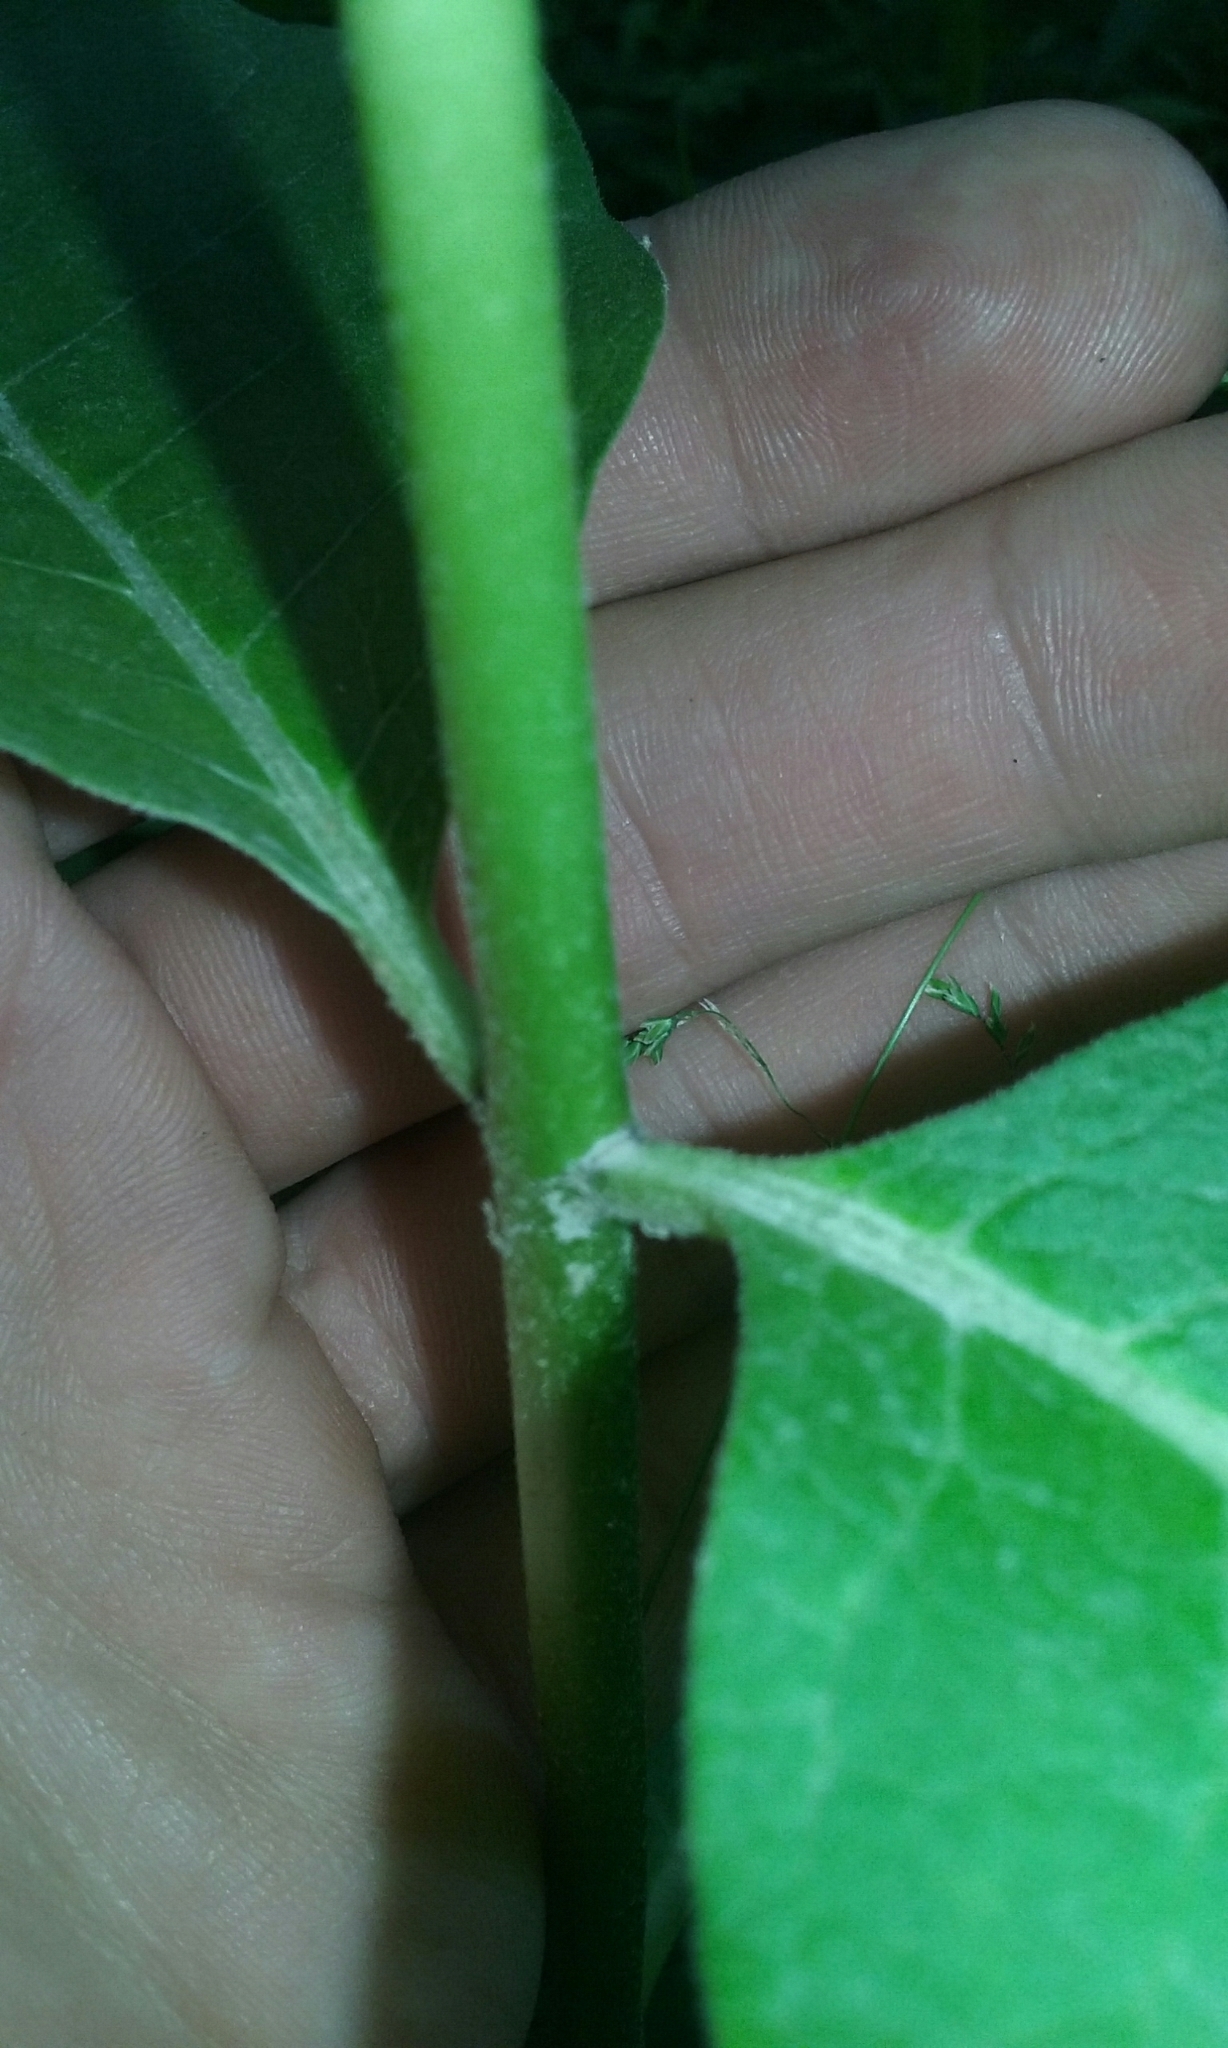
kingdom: Plantae
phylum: Tracheophyta
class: Magnoliopsida
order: Gentianales
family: Apocynaceae
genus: Asclepias
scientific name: Asclepias syriaca
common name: Common milkweed
